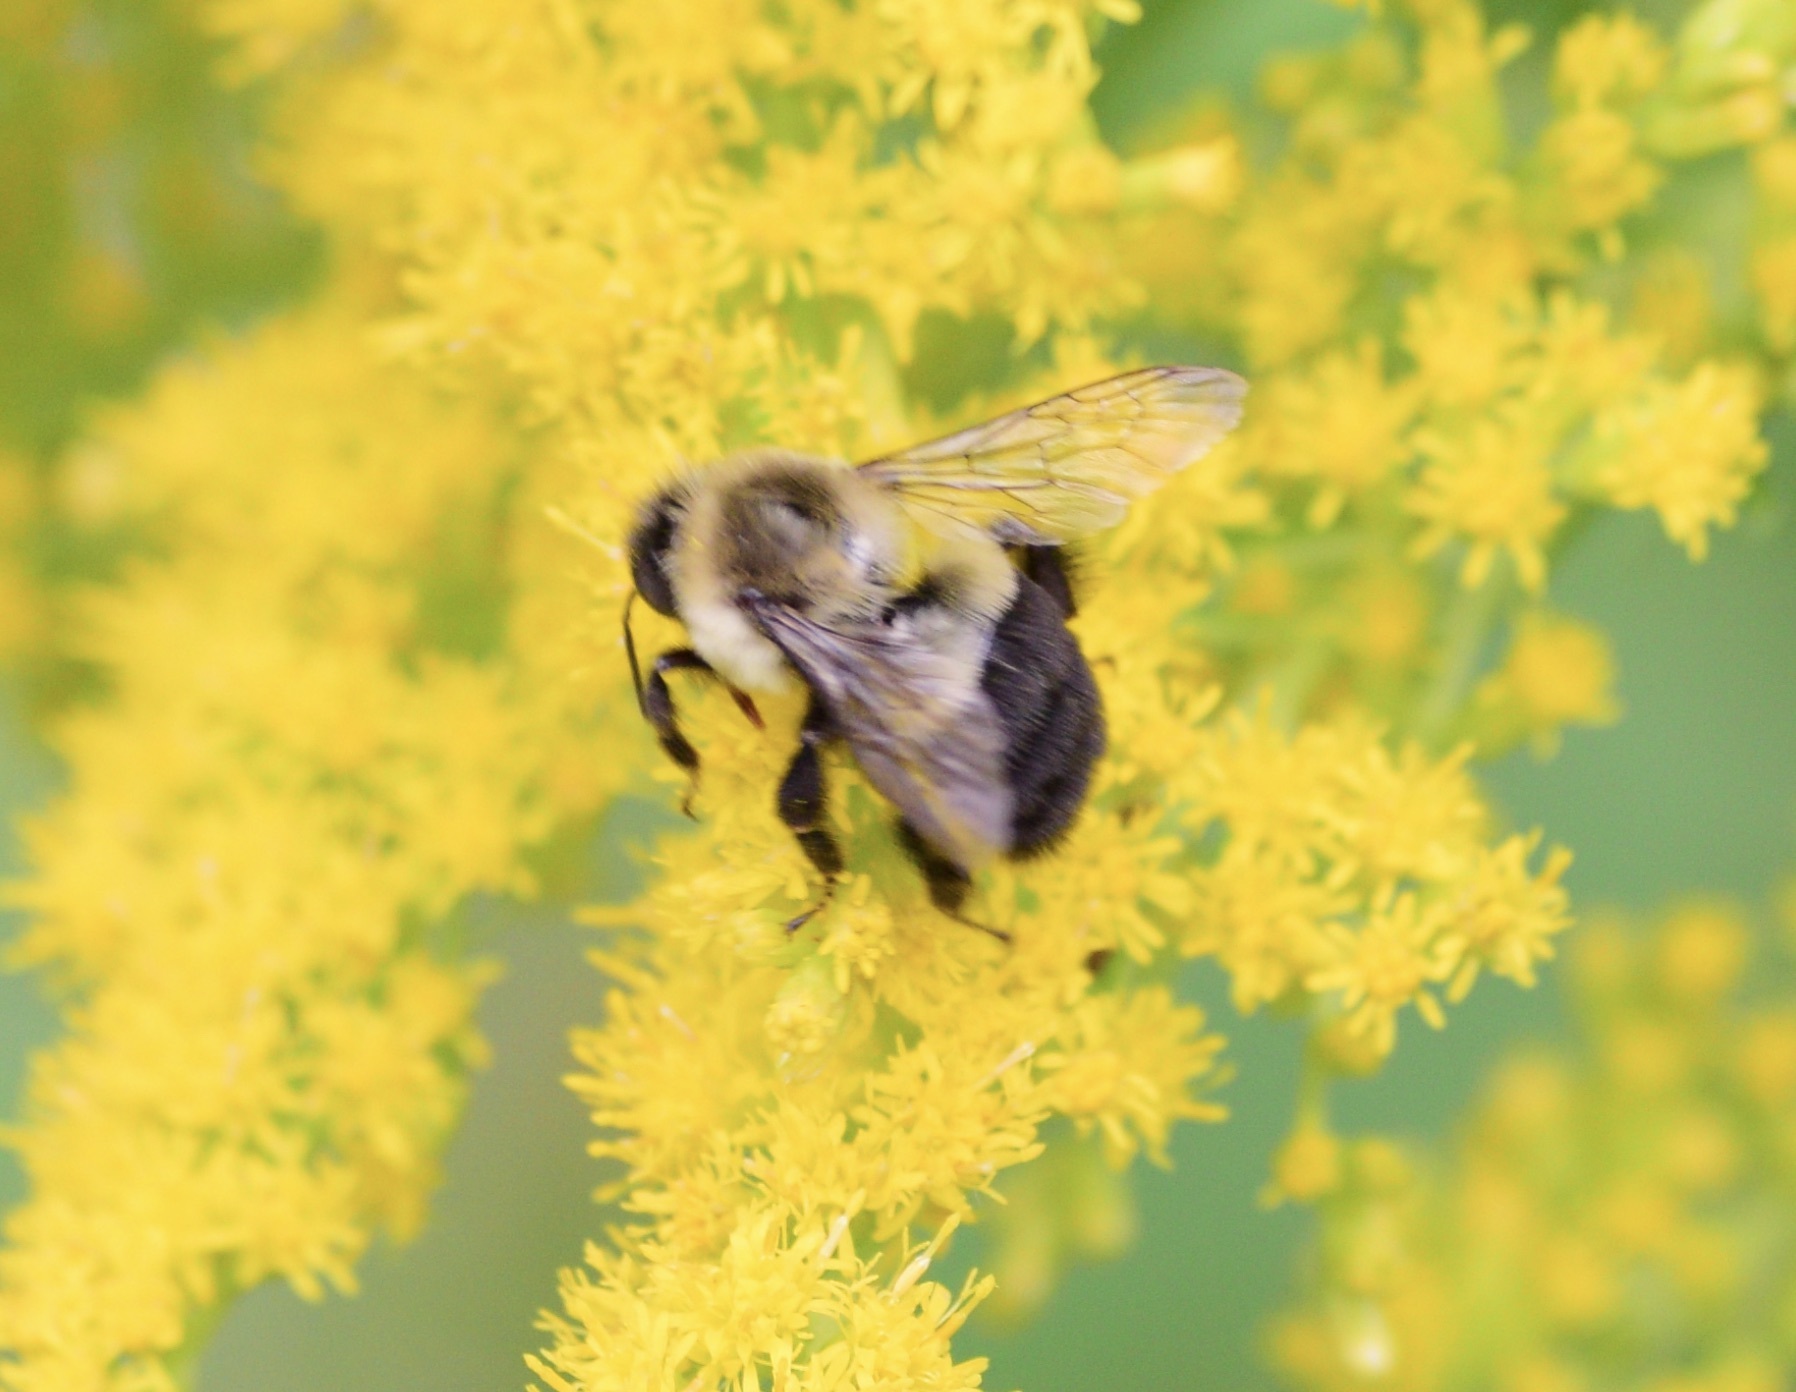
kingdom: Animalia
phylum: Arthropoda
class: Insecta
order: Hymenoptera
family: Apidae
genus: Bombus
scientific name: Bombus impatiens
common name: Common eastern bumble bee
